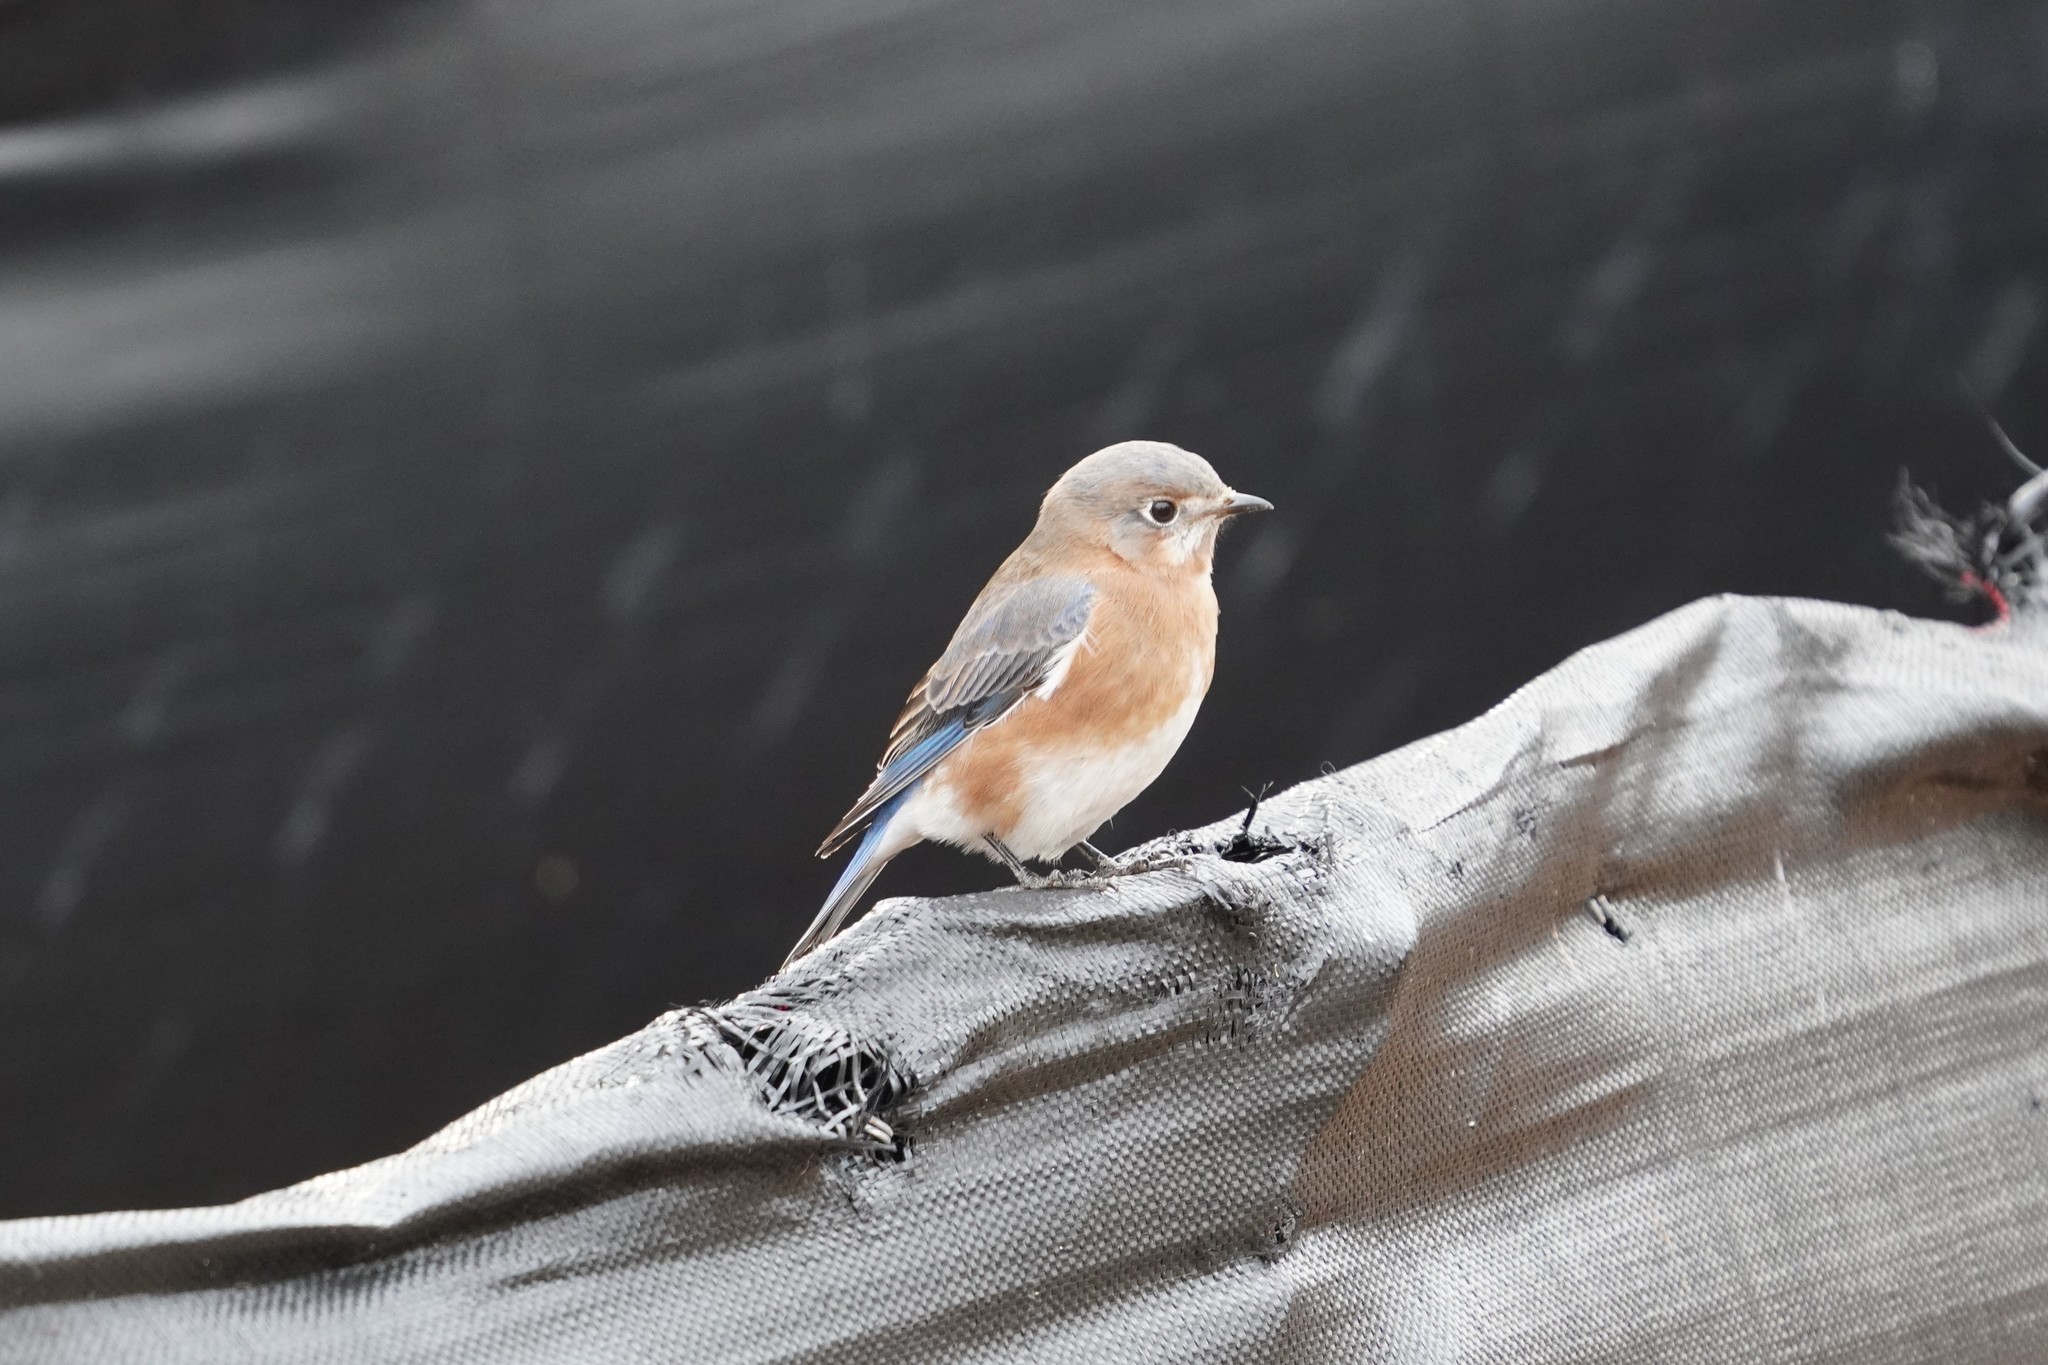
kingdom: Animalia
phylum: Chordata
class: Aves
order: Passeriformes
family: Turdidae
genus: Sialia
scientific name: Sialia sialis
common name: Eastern bluebird
